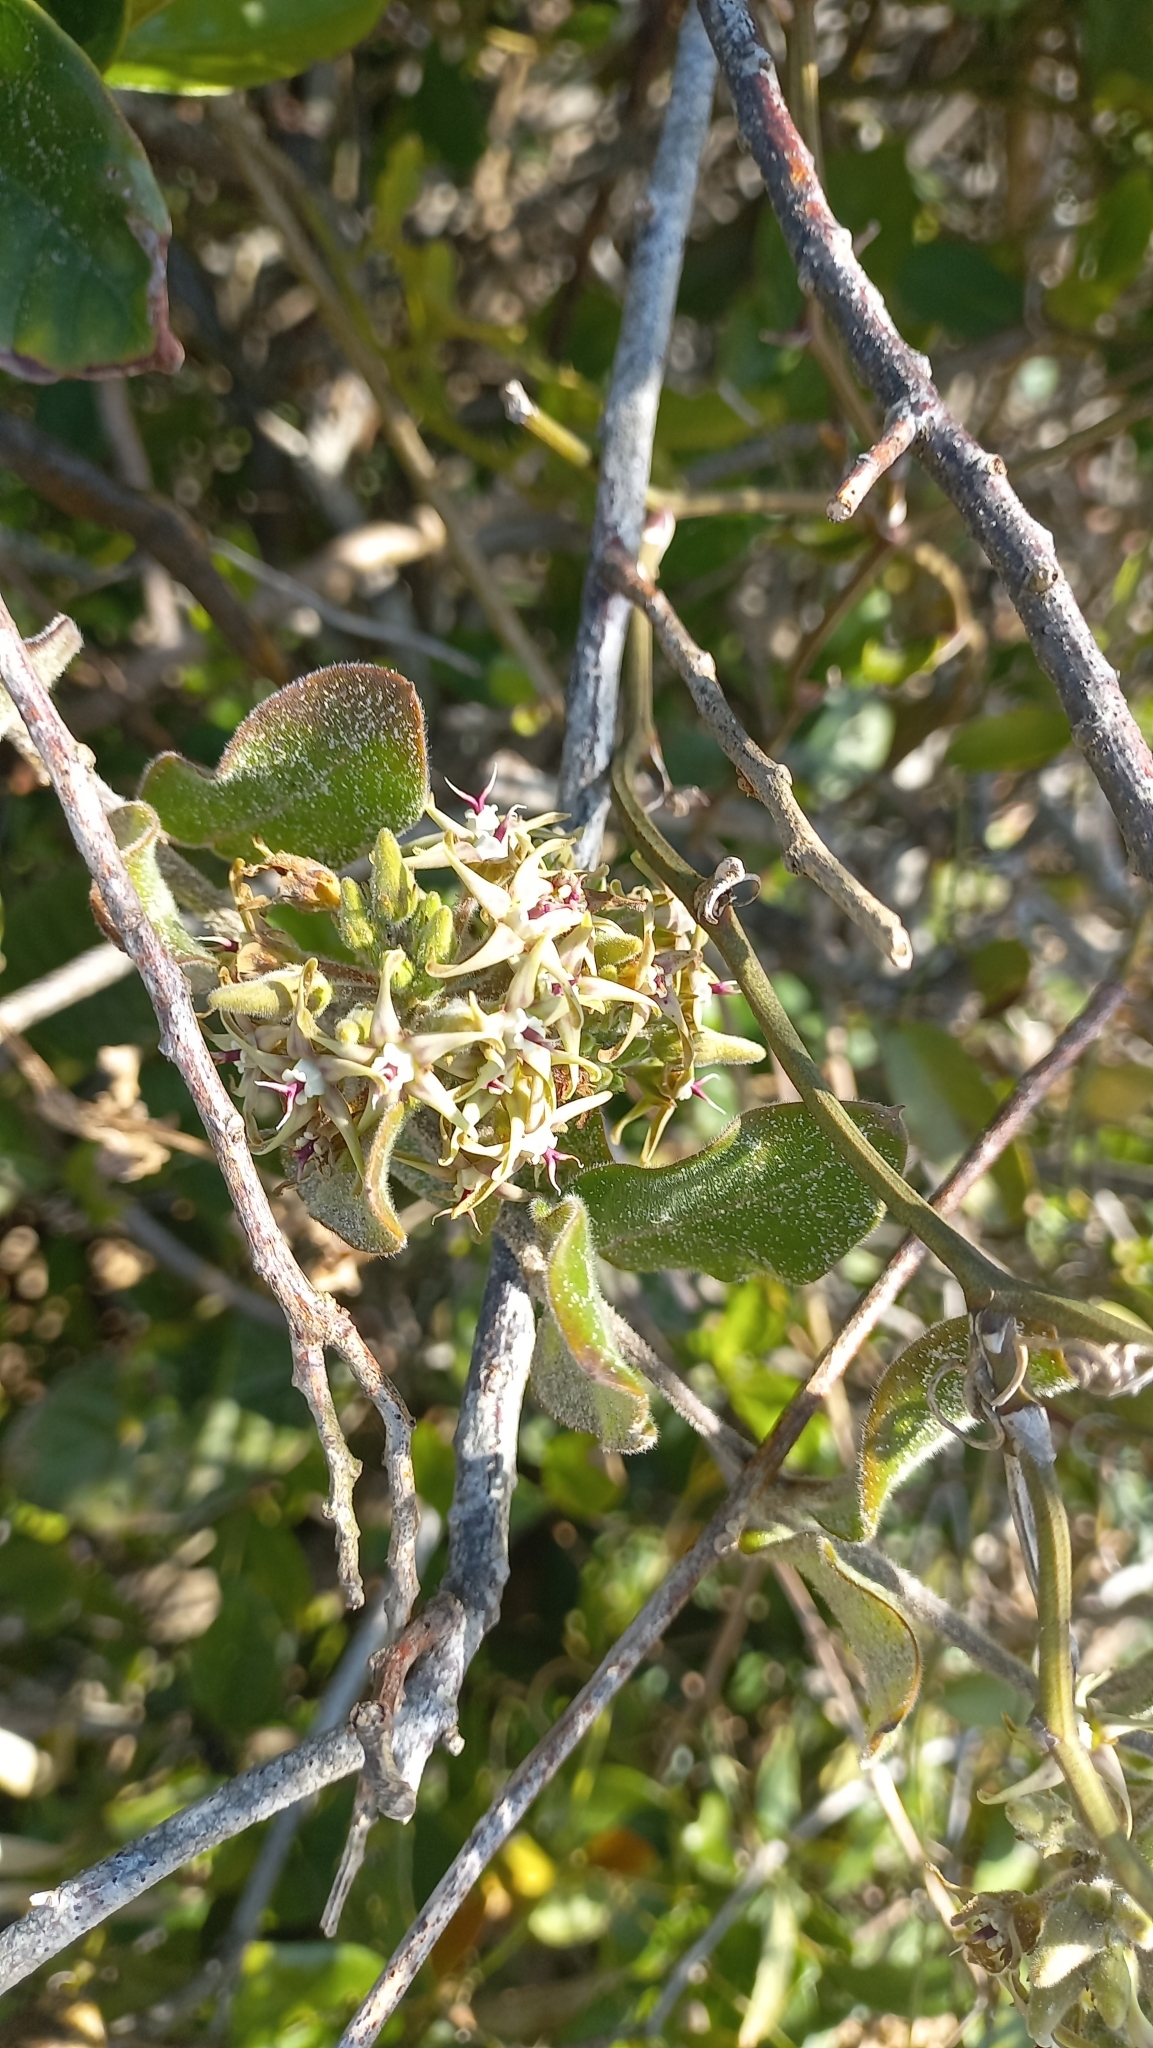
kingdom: Plantae
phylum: Tracheophyta
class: Magnoliopsida
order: Gentianales
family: Apocynaceae
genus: Oxypetalum
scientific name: Oxypetalum tomentosum
